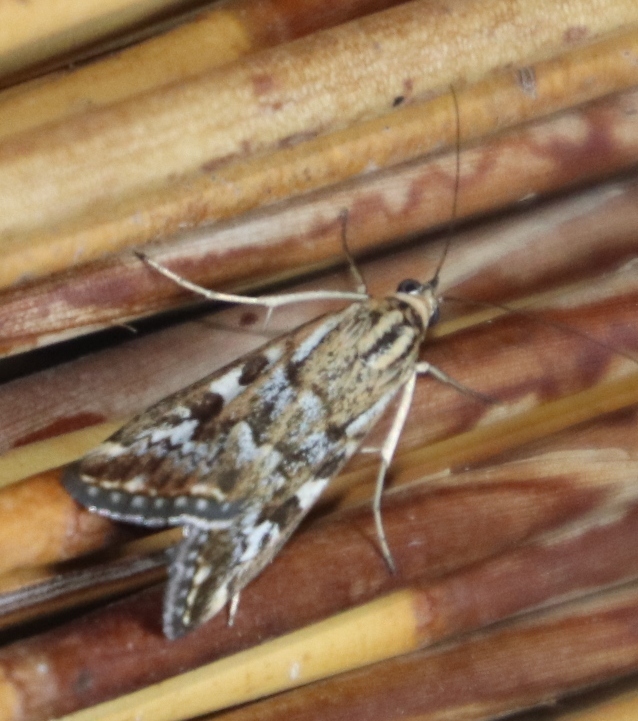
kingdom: Animalia
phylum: Arthropoda
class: Insecta
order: Lepidoptera
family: Crambidae
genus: Loxostege
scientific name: Loxostege frustalis
